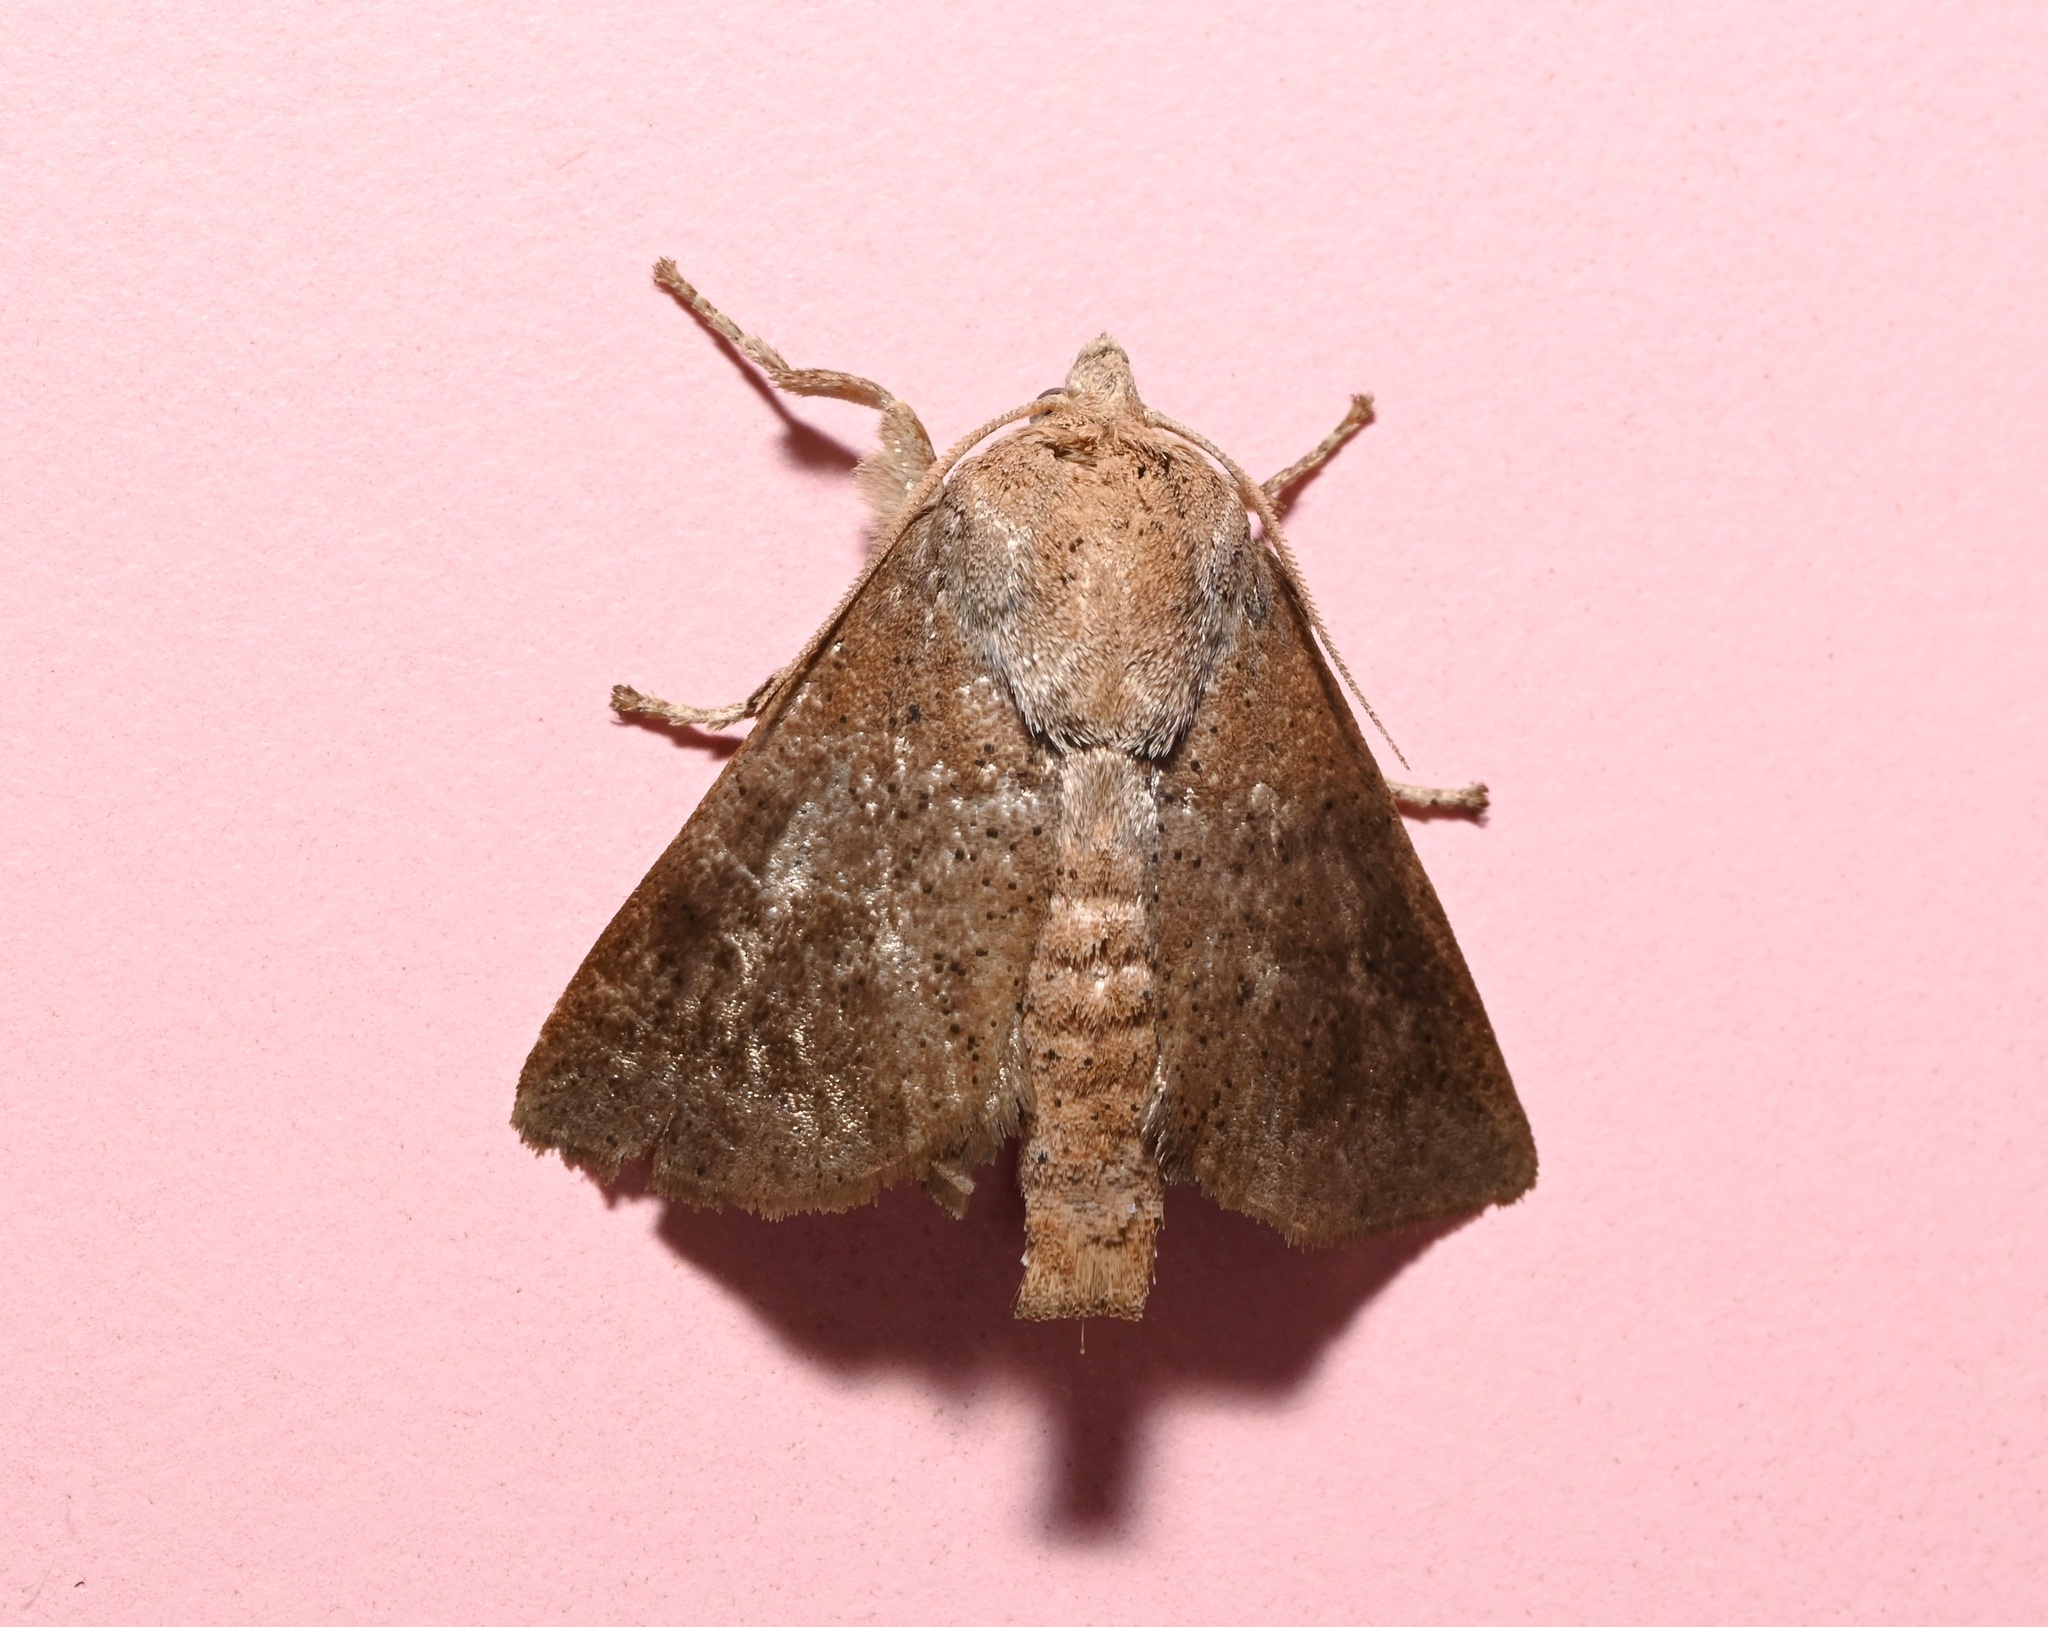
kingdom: Animalia
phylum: Arthropoda
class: Insecta
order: Lepidoptera
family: Limacodidae
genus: Griseothosea
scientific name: Griseothosea fasciata
